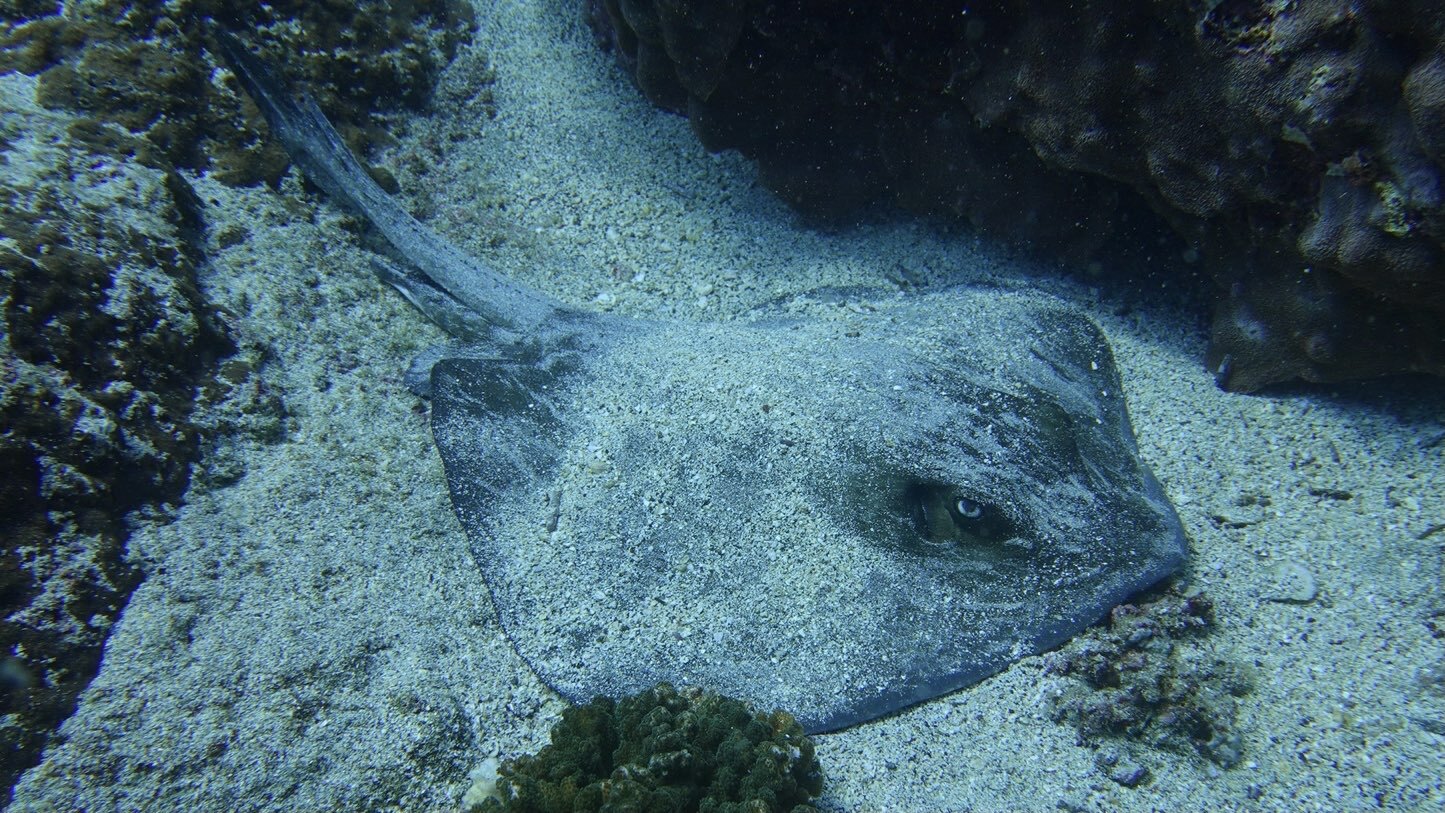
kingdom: Animalia
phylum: Chordata
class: Elasmobranchii
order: Myliobatiformes
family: Dasyatidae
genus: Hypanus
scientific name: Hypanus dipterurus
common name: Diamond stingray
